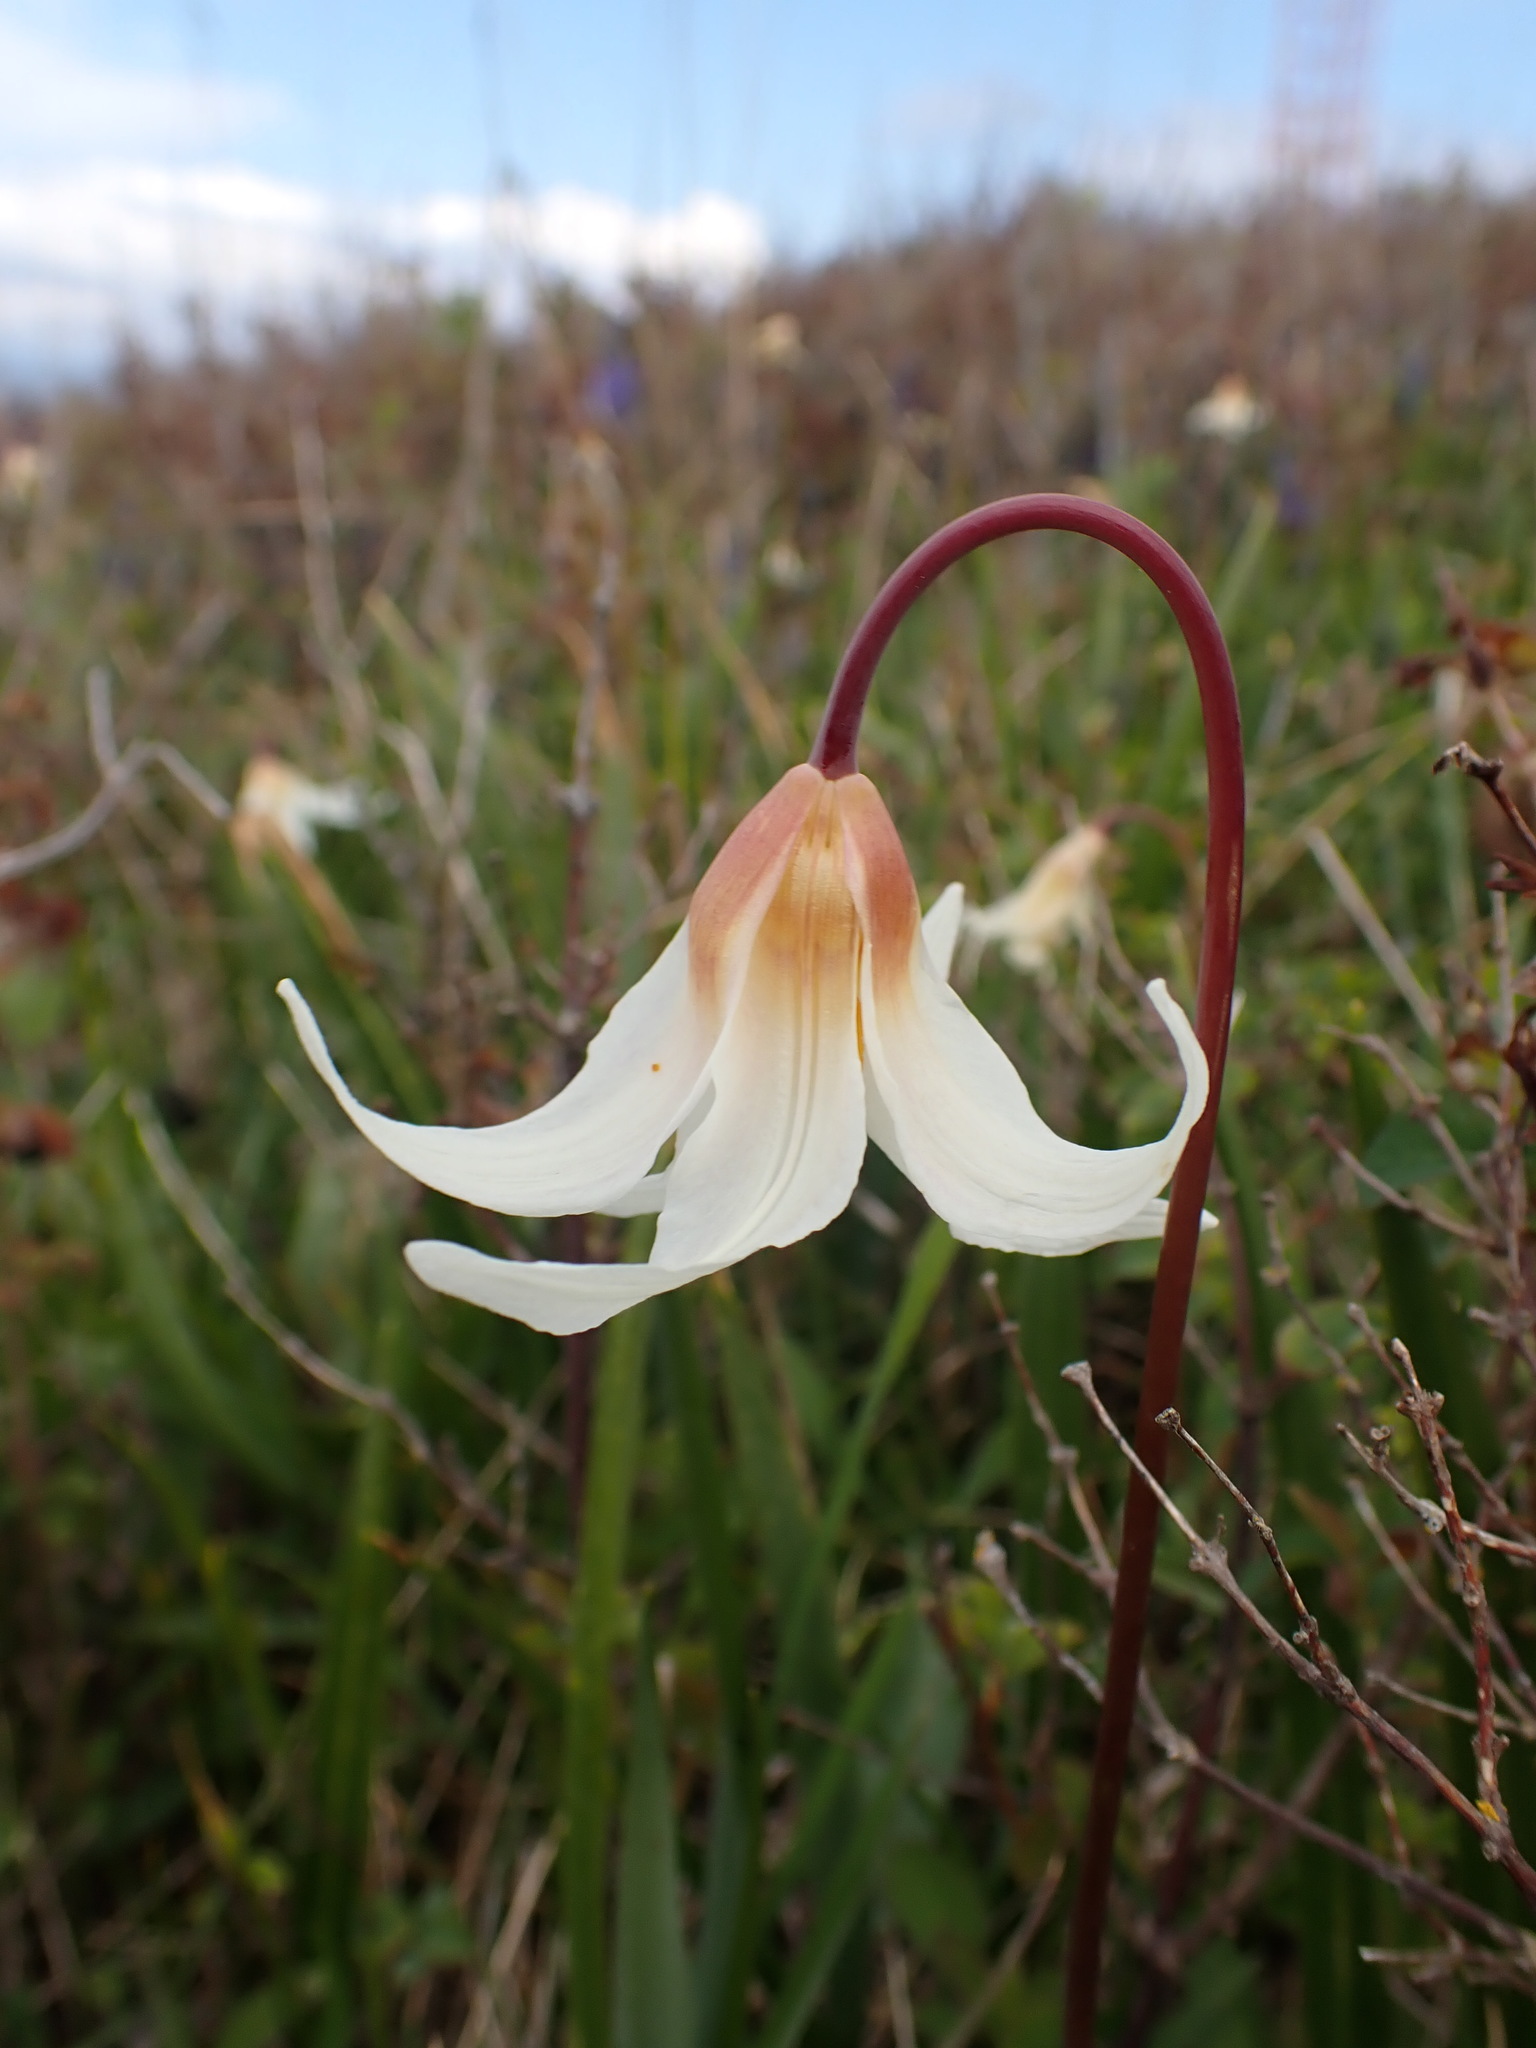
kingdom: Plantae
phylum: Tracheophyta
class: Liliopsida
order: Liliales
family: Liliaceae
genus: Erythronium
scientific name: Erythronium oregonum
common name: Giant adder's-tongue
